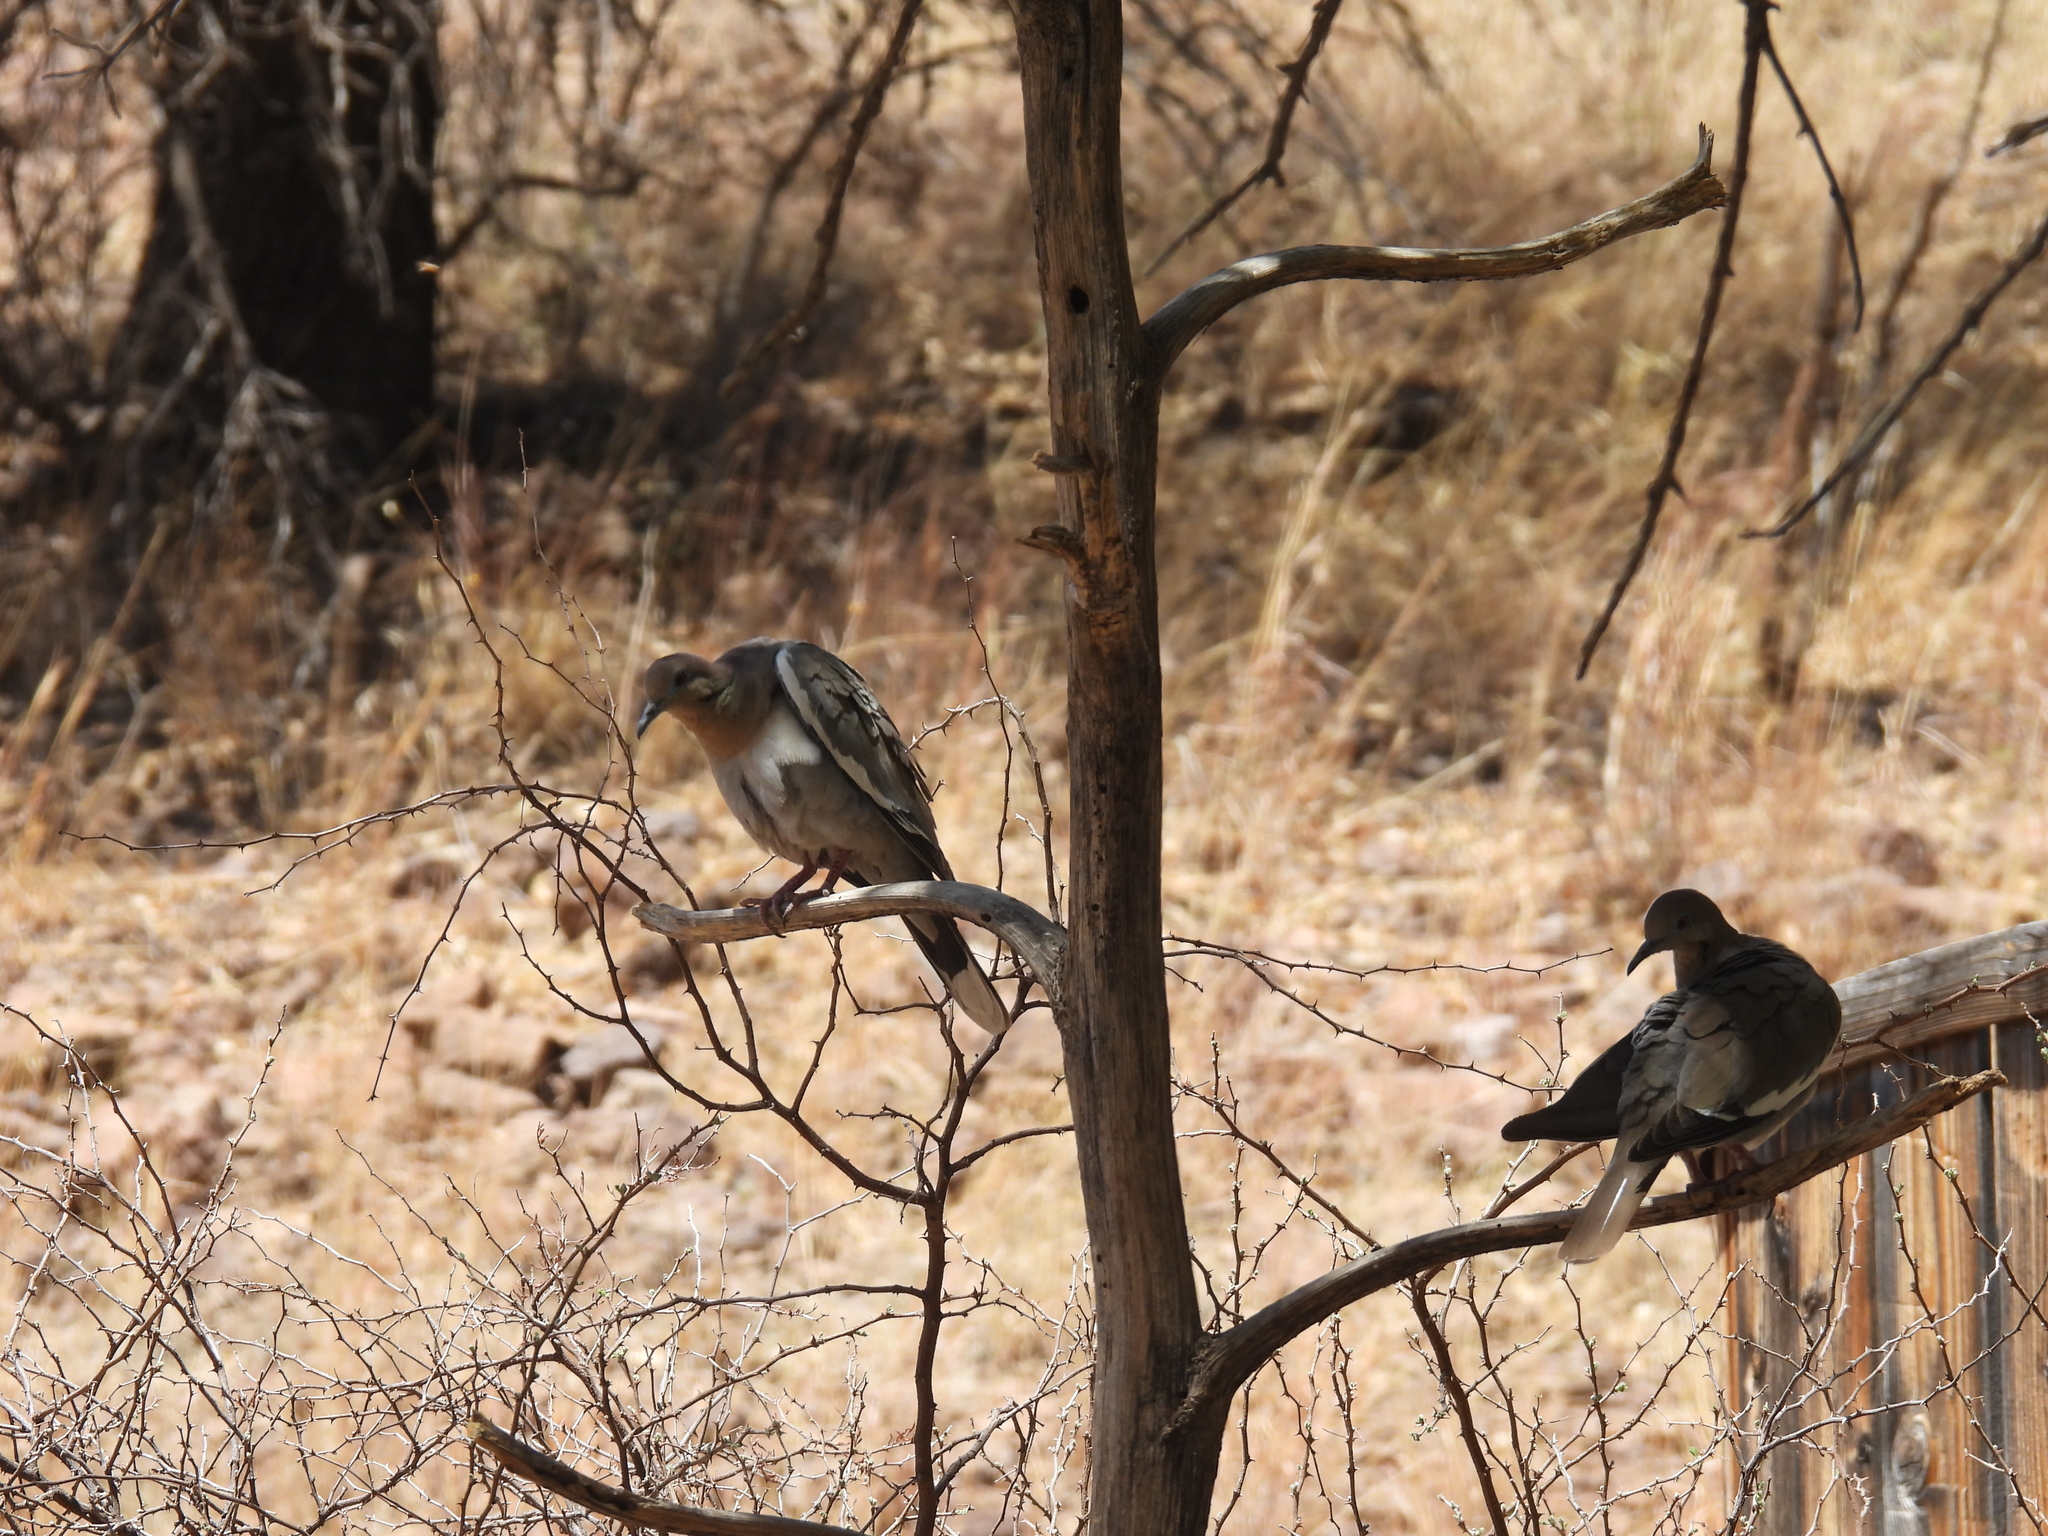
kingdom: Animalia
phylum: Chordata
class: Aves
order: Columbiformes
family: Columbidae
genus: Zenaida
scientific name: Zenaida asiatica
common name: White-winged dove
